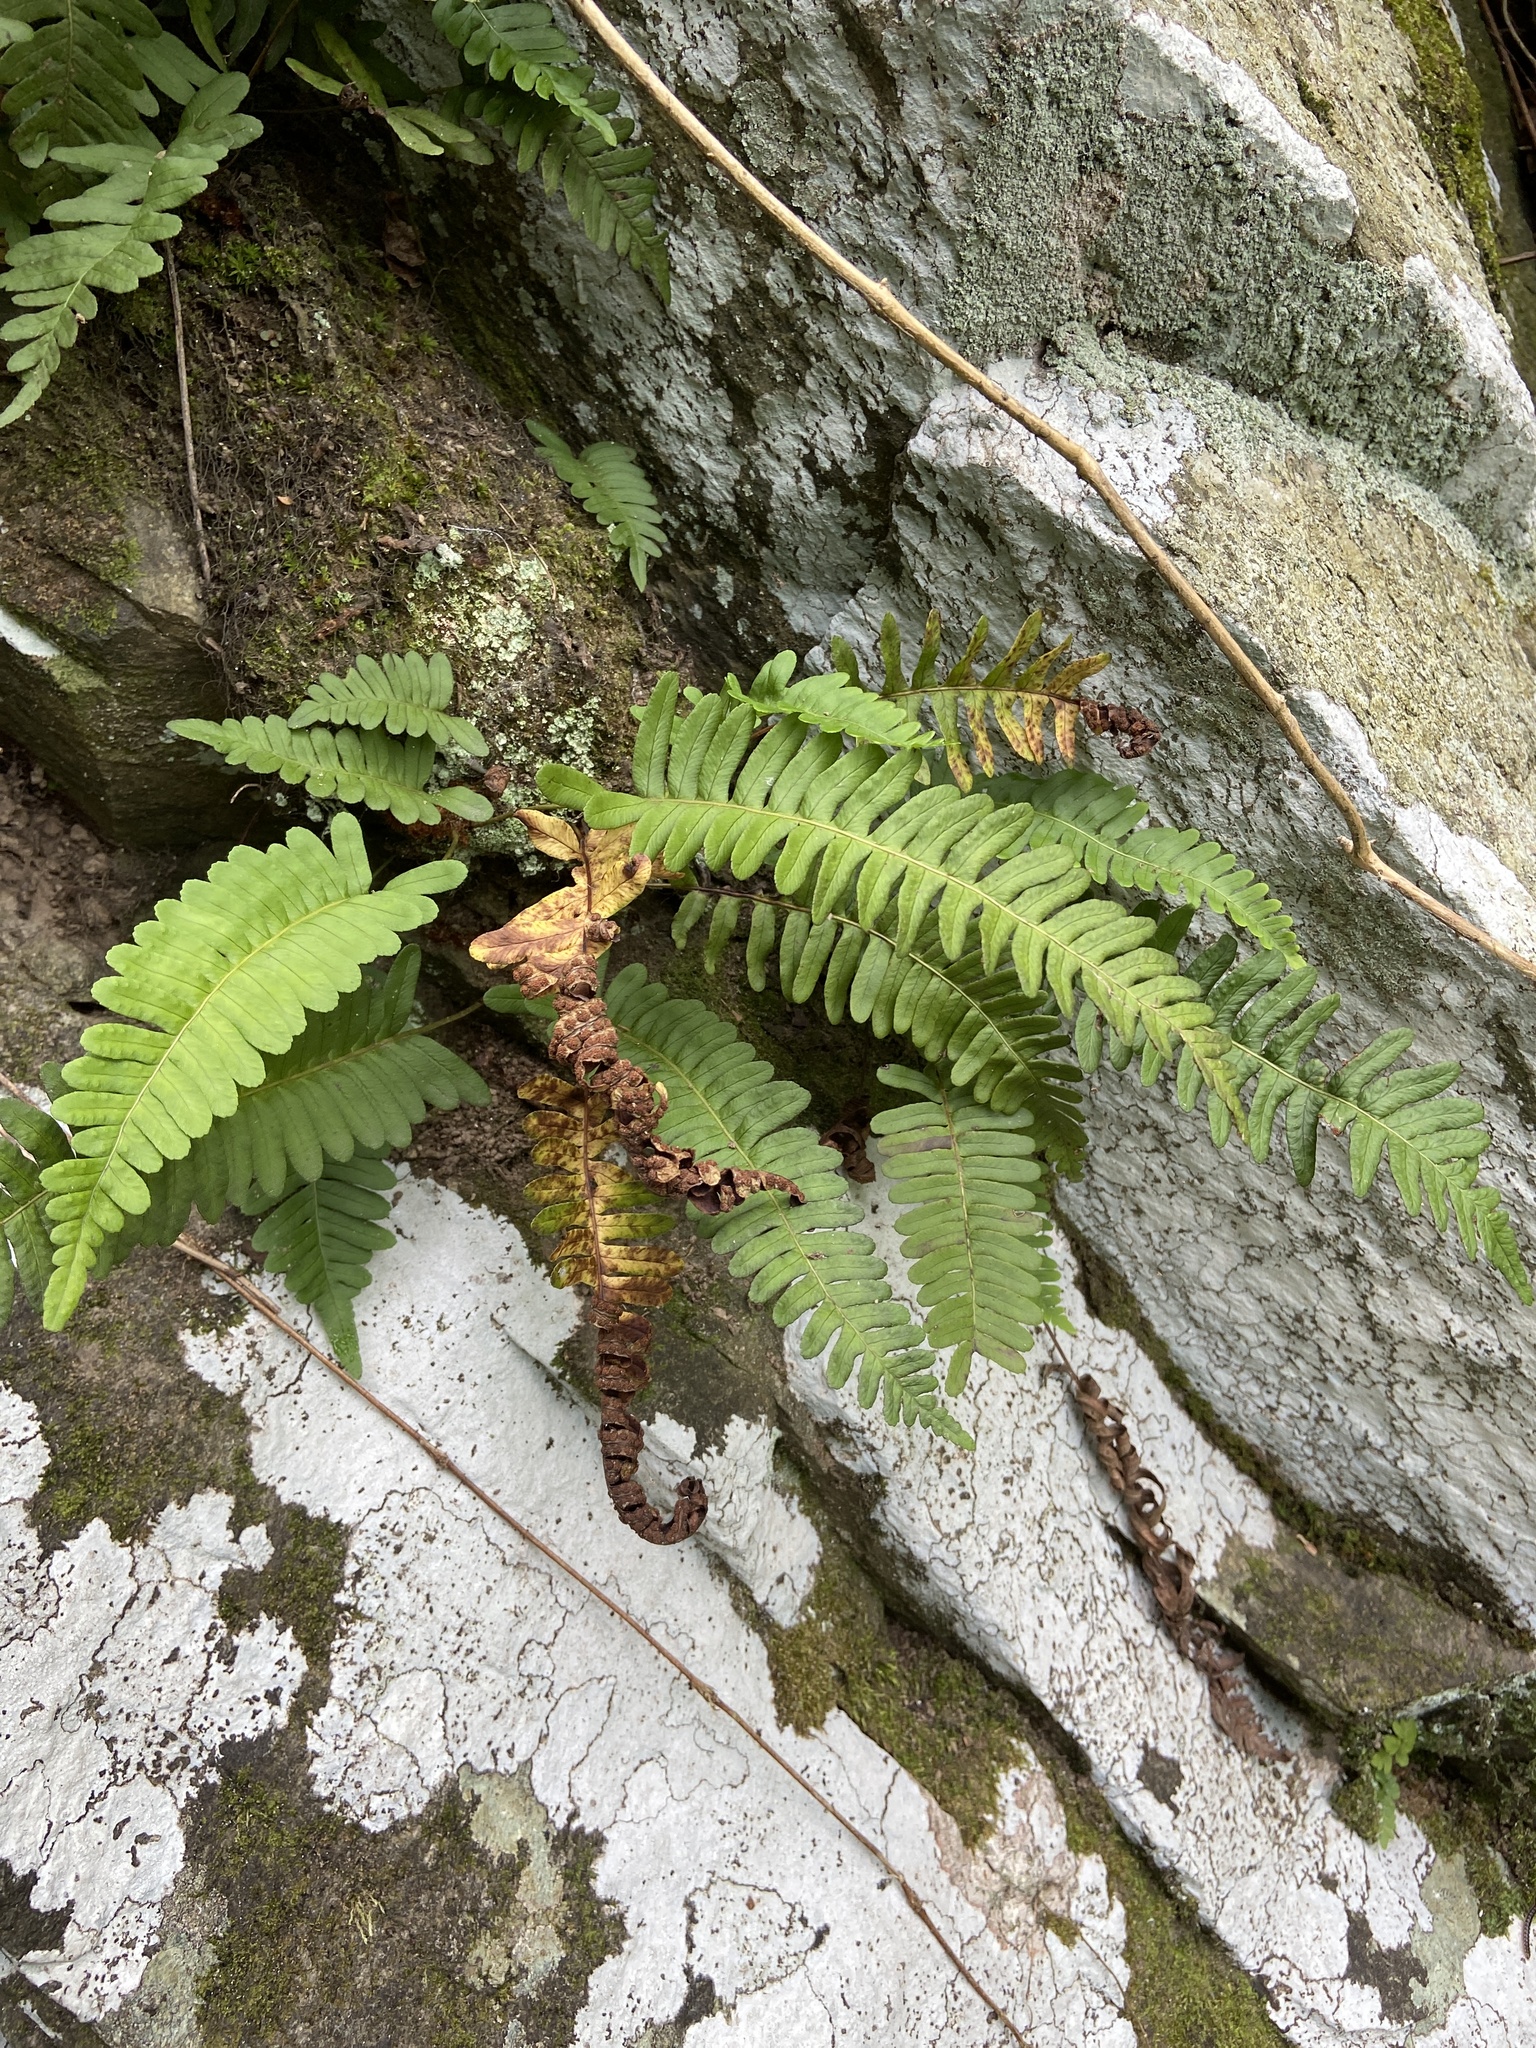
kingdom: Plantae
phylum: Tracheophyta
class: Polypodiopsida
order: Polypodiales
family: Polypodiaceae
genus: Polypodium
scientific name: Polypodium virginianum
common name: American wall fern
